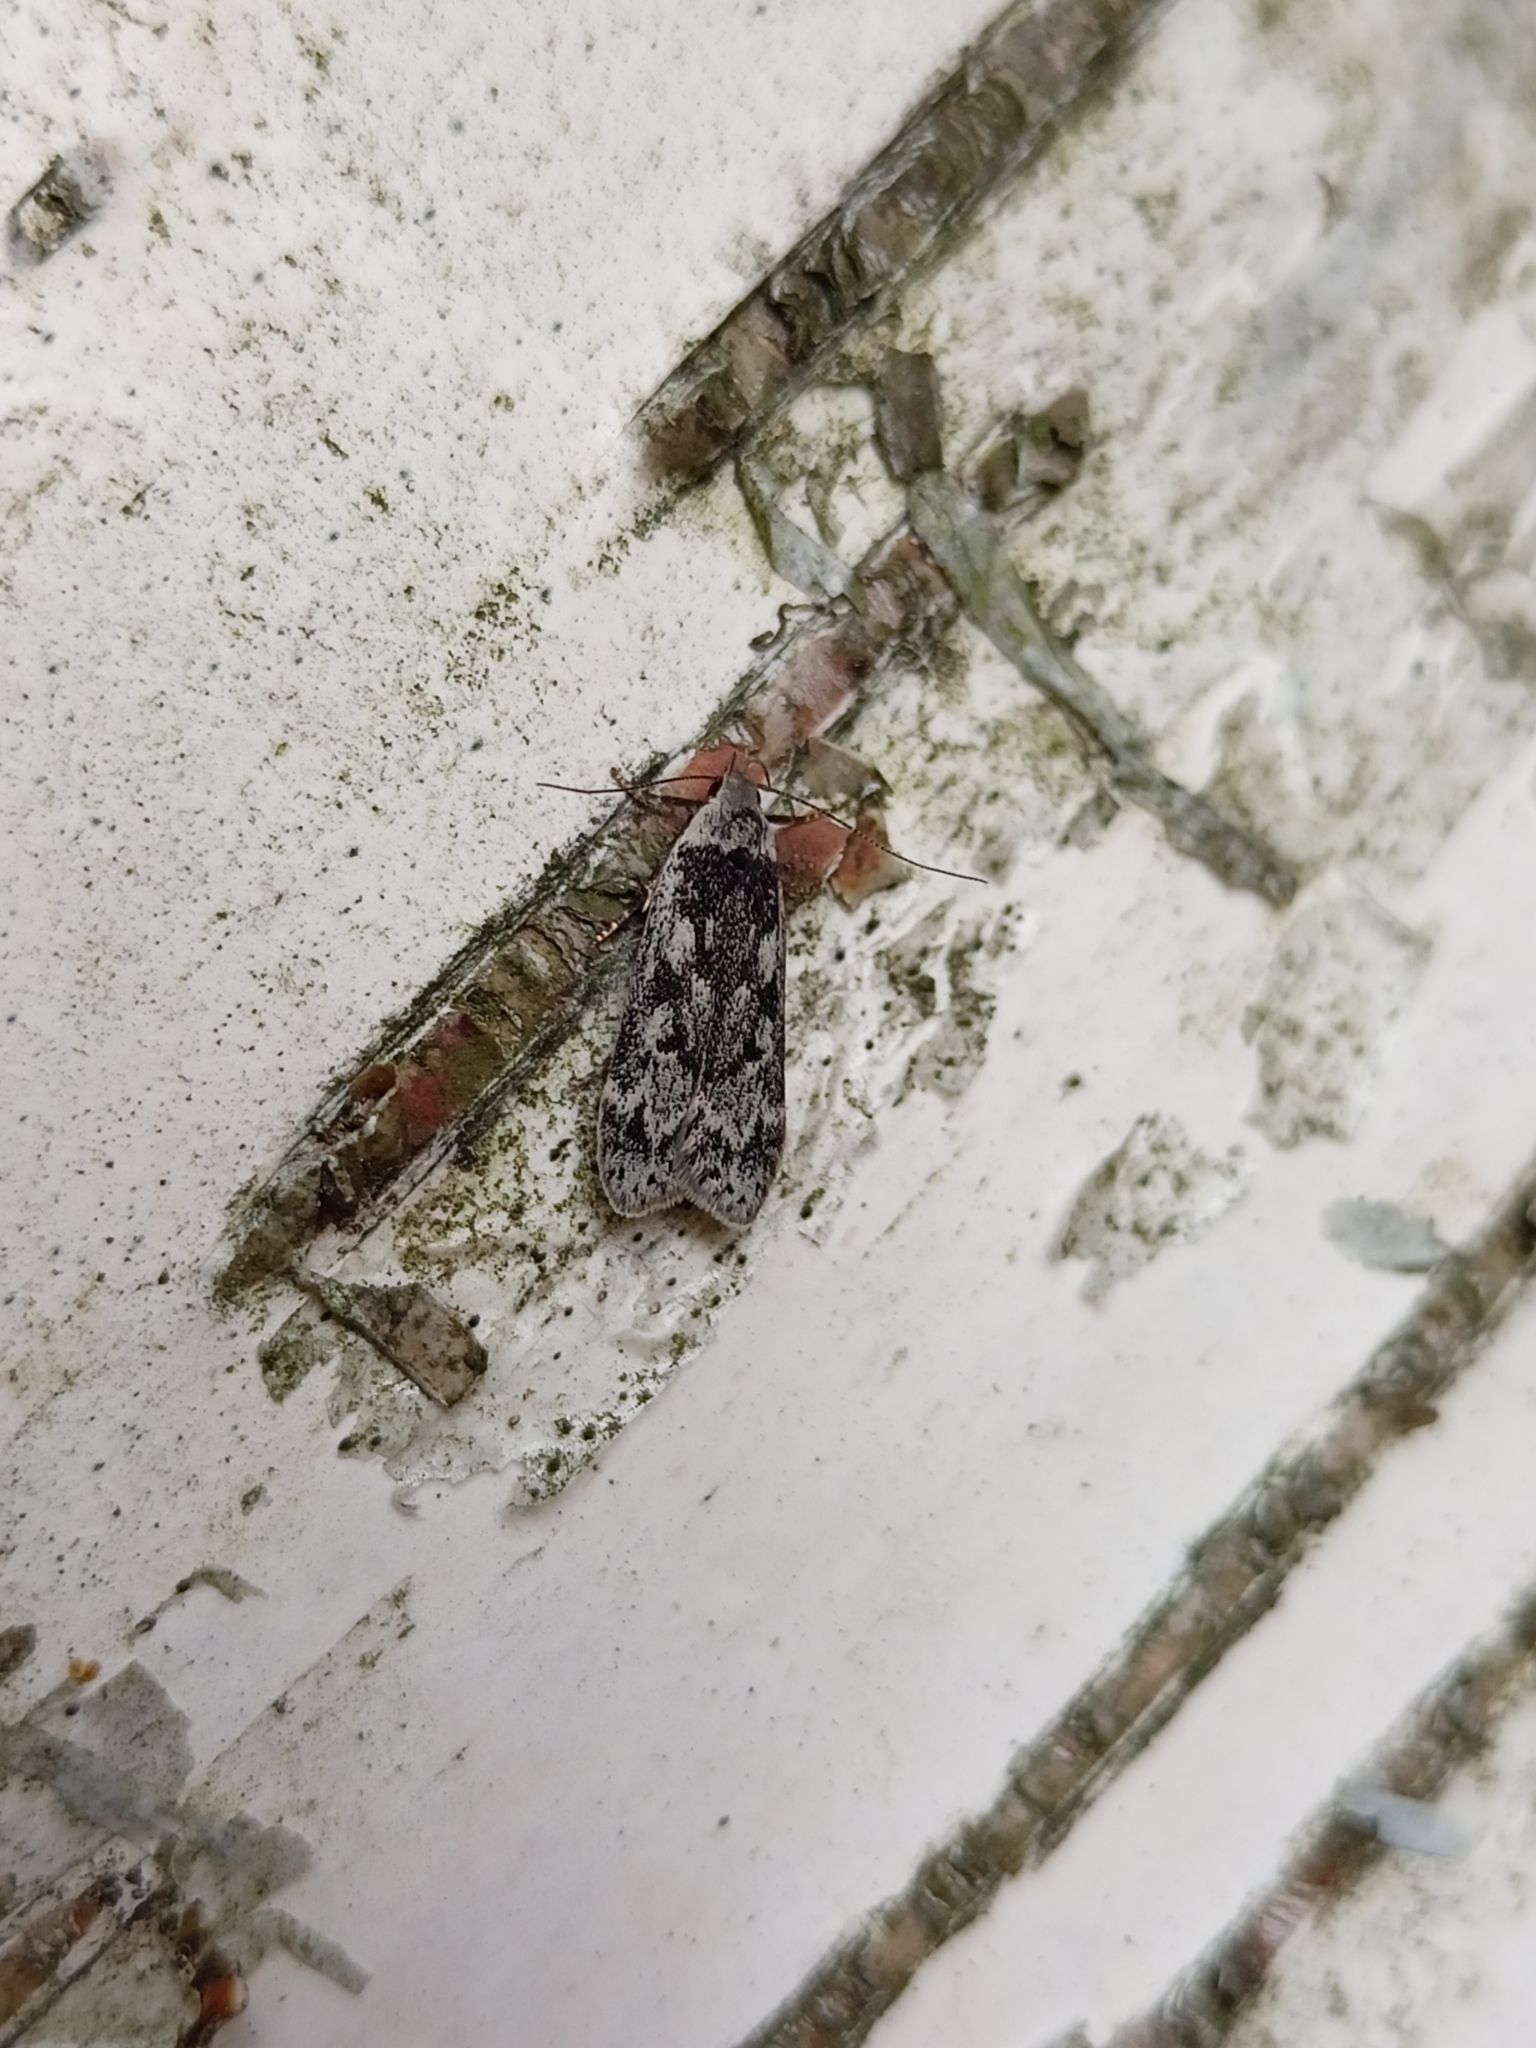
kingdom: Animalia
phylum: Arthropoda
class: Insecta
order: Lepidoptera
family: Gelechiidae
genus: Anacampsis
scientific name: Anacampsis blattariella
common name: Birch sober
